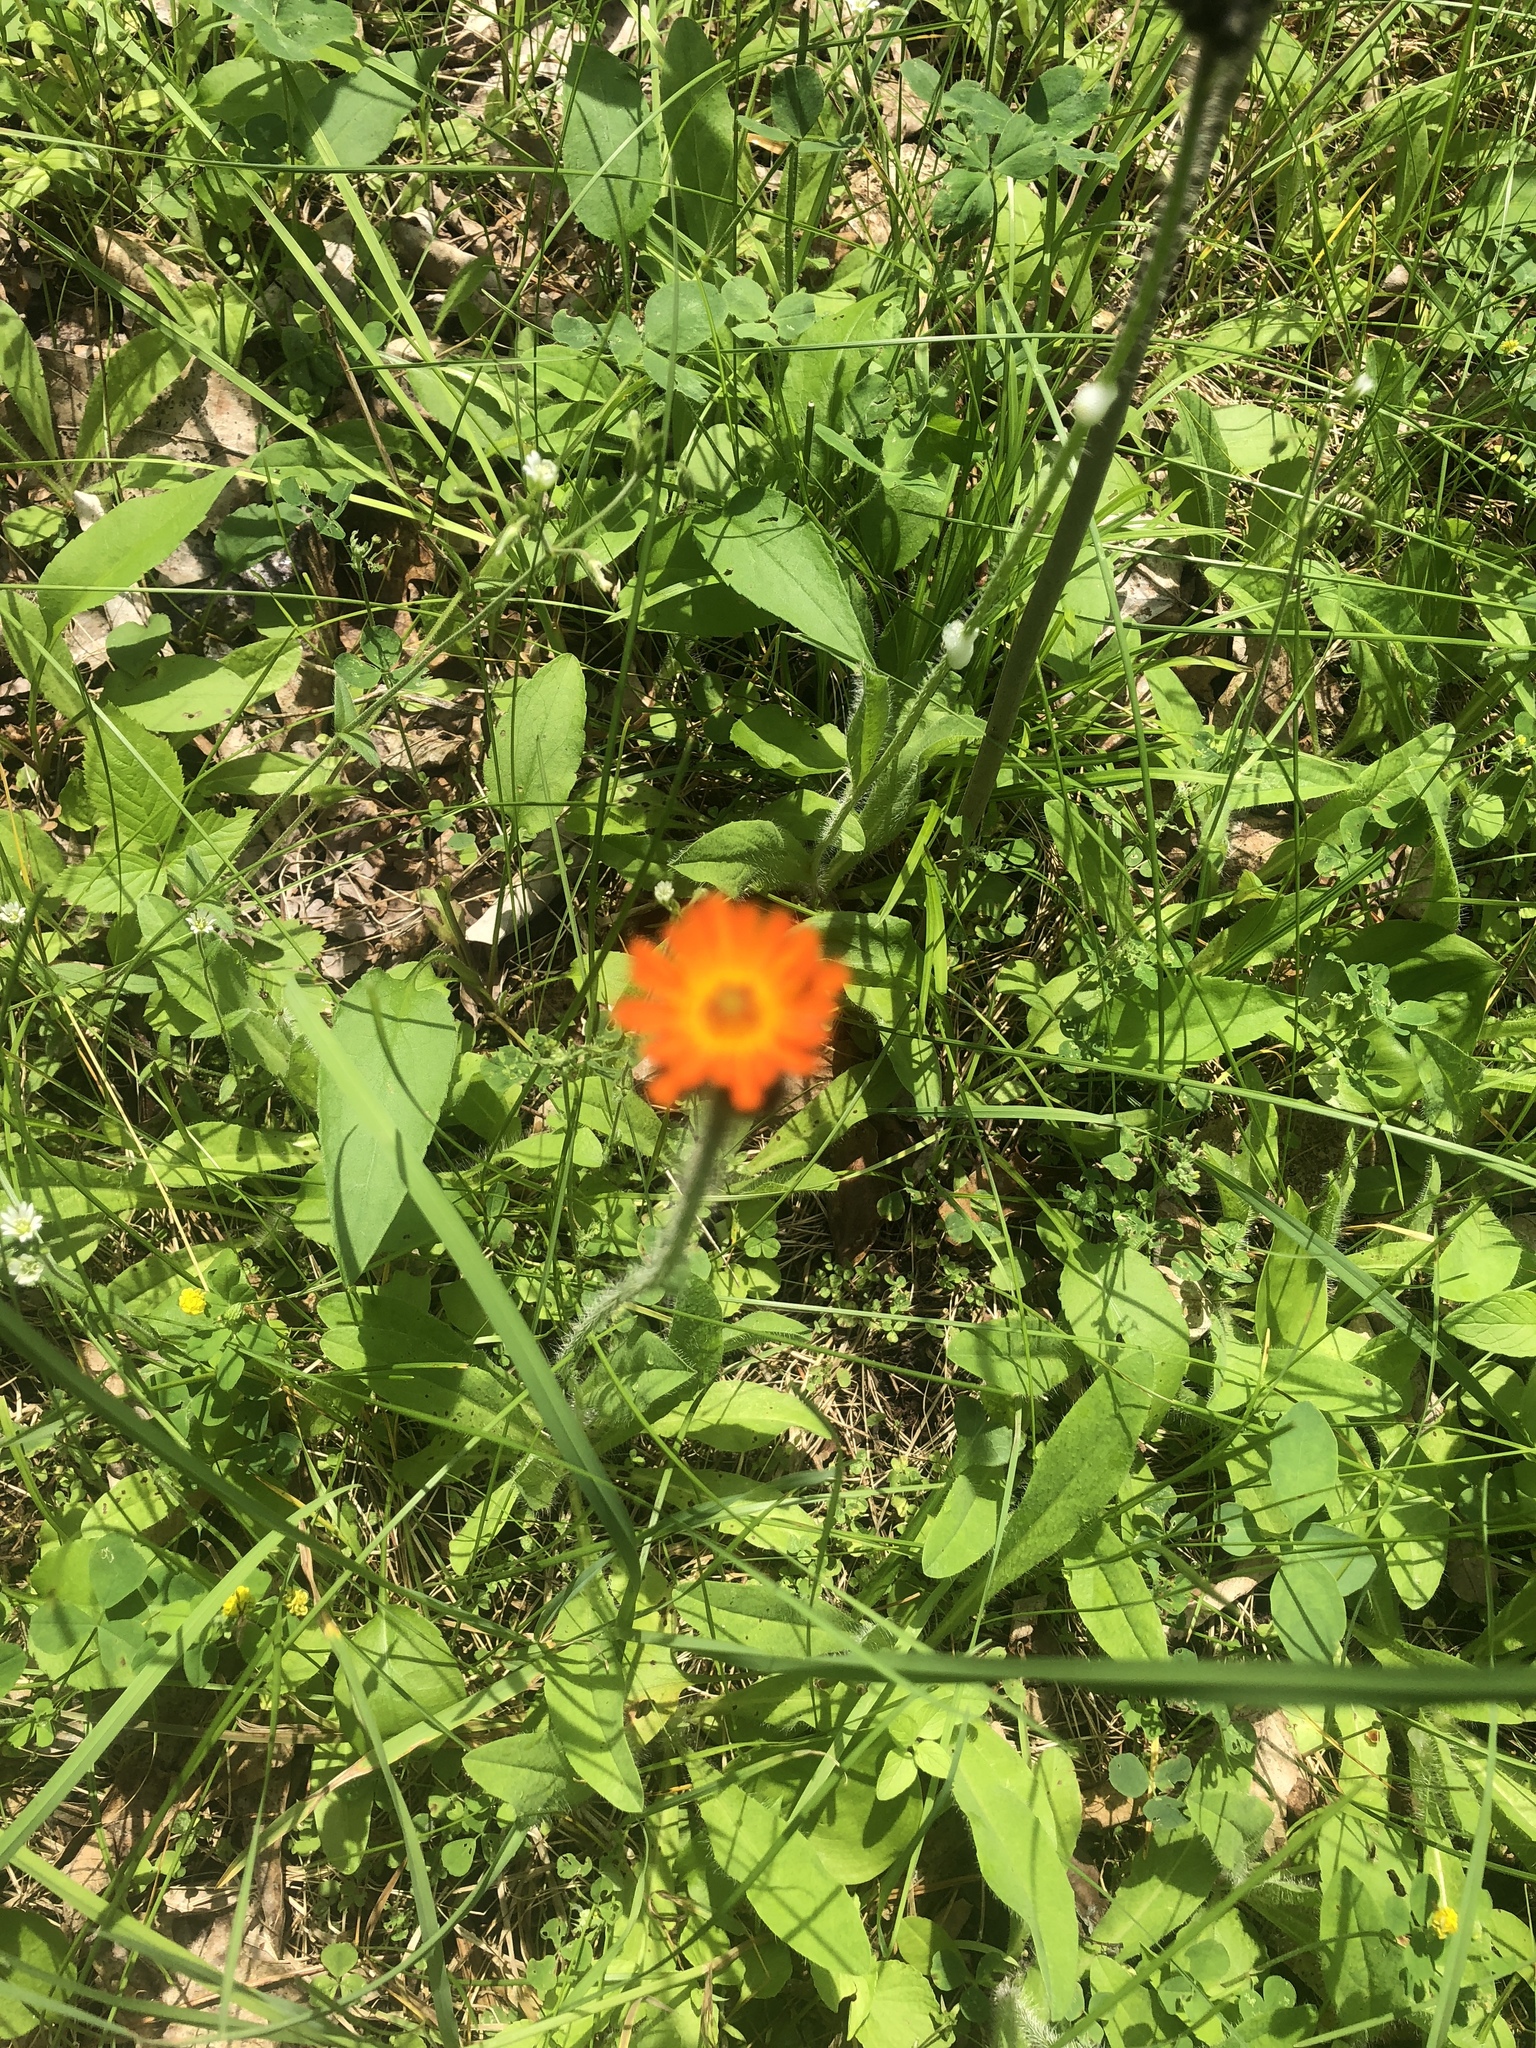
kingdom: Plantae
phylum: Tracheophyta
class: Magnoliopsida
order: Asterales
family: Asteraceae
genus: Pilosella
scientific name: Pilosella aurantiaca
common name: Fox-and-cubs
